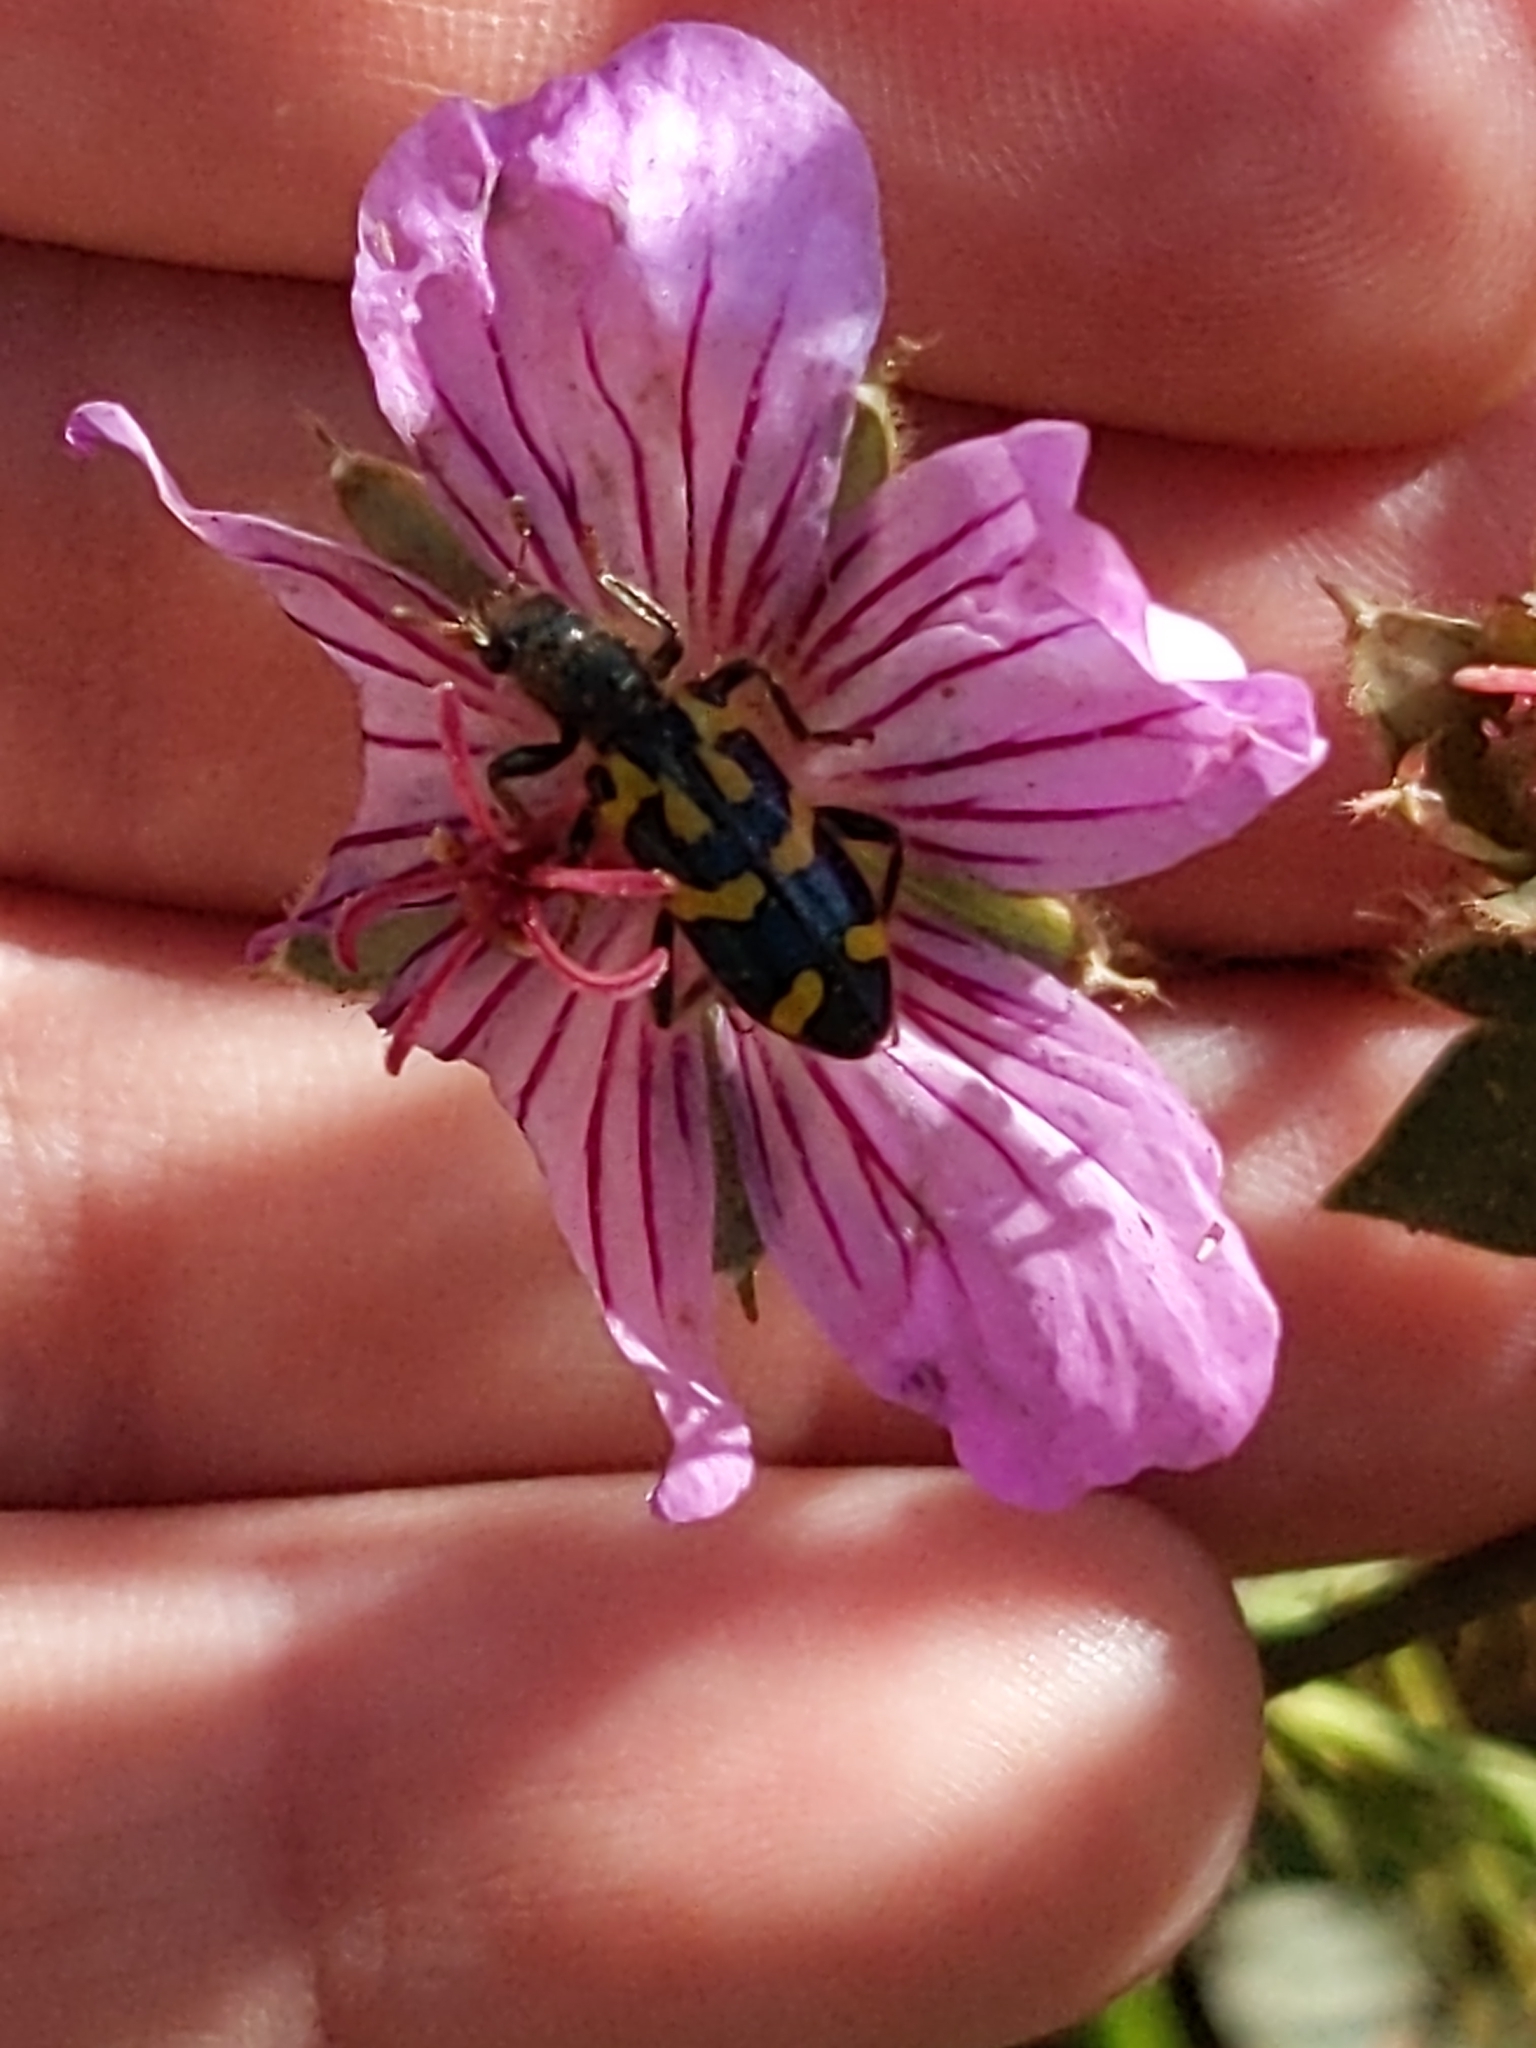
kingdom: Animalia
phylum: Arthropoda
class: Insecta
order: Coleoptera
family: Cleridae
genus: Trichodes
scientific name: Trichodes ornatus
